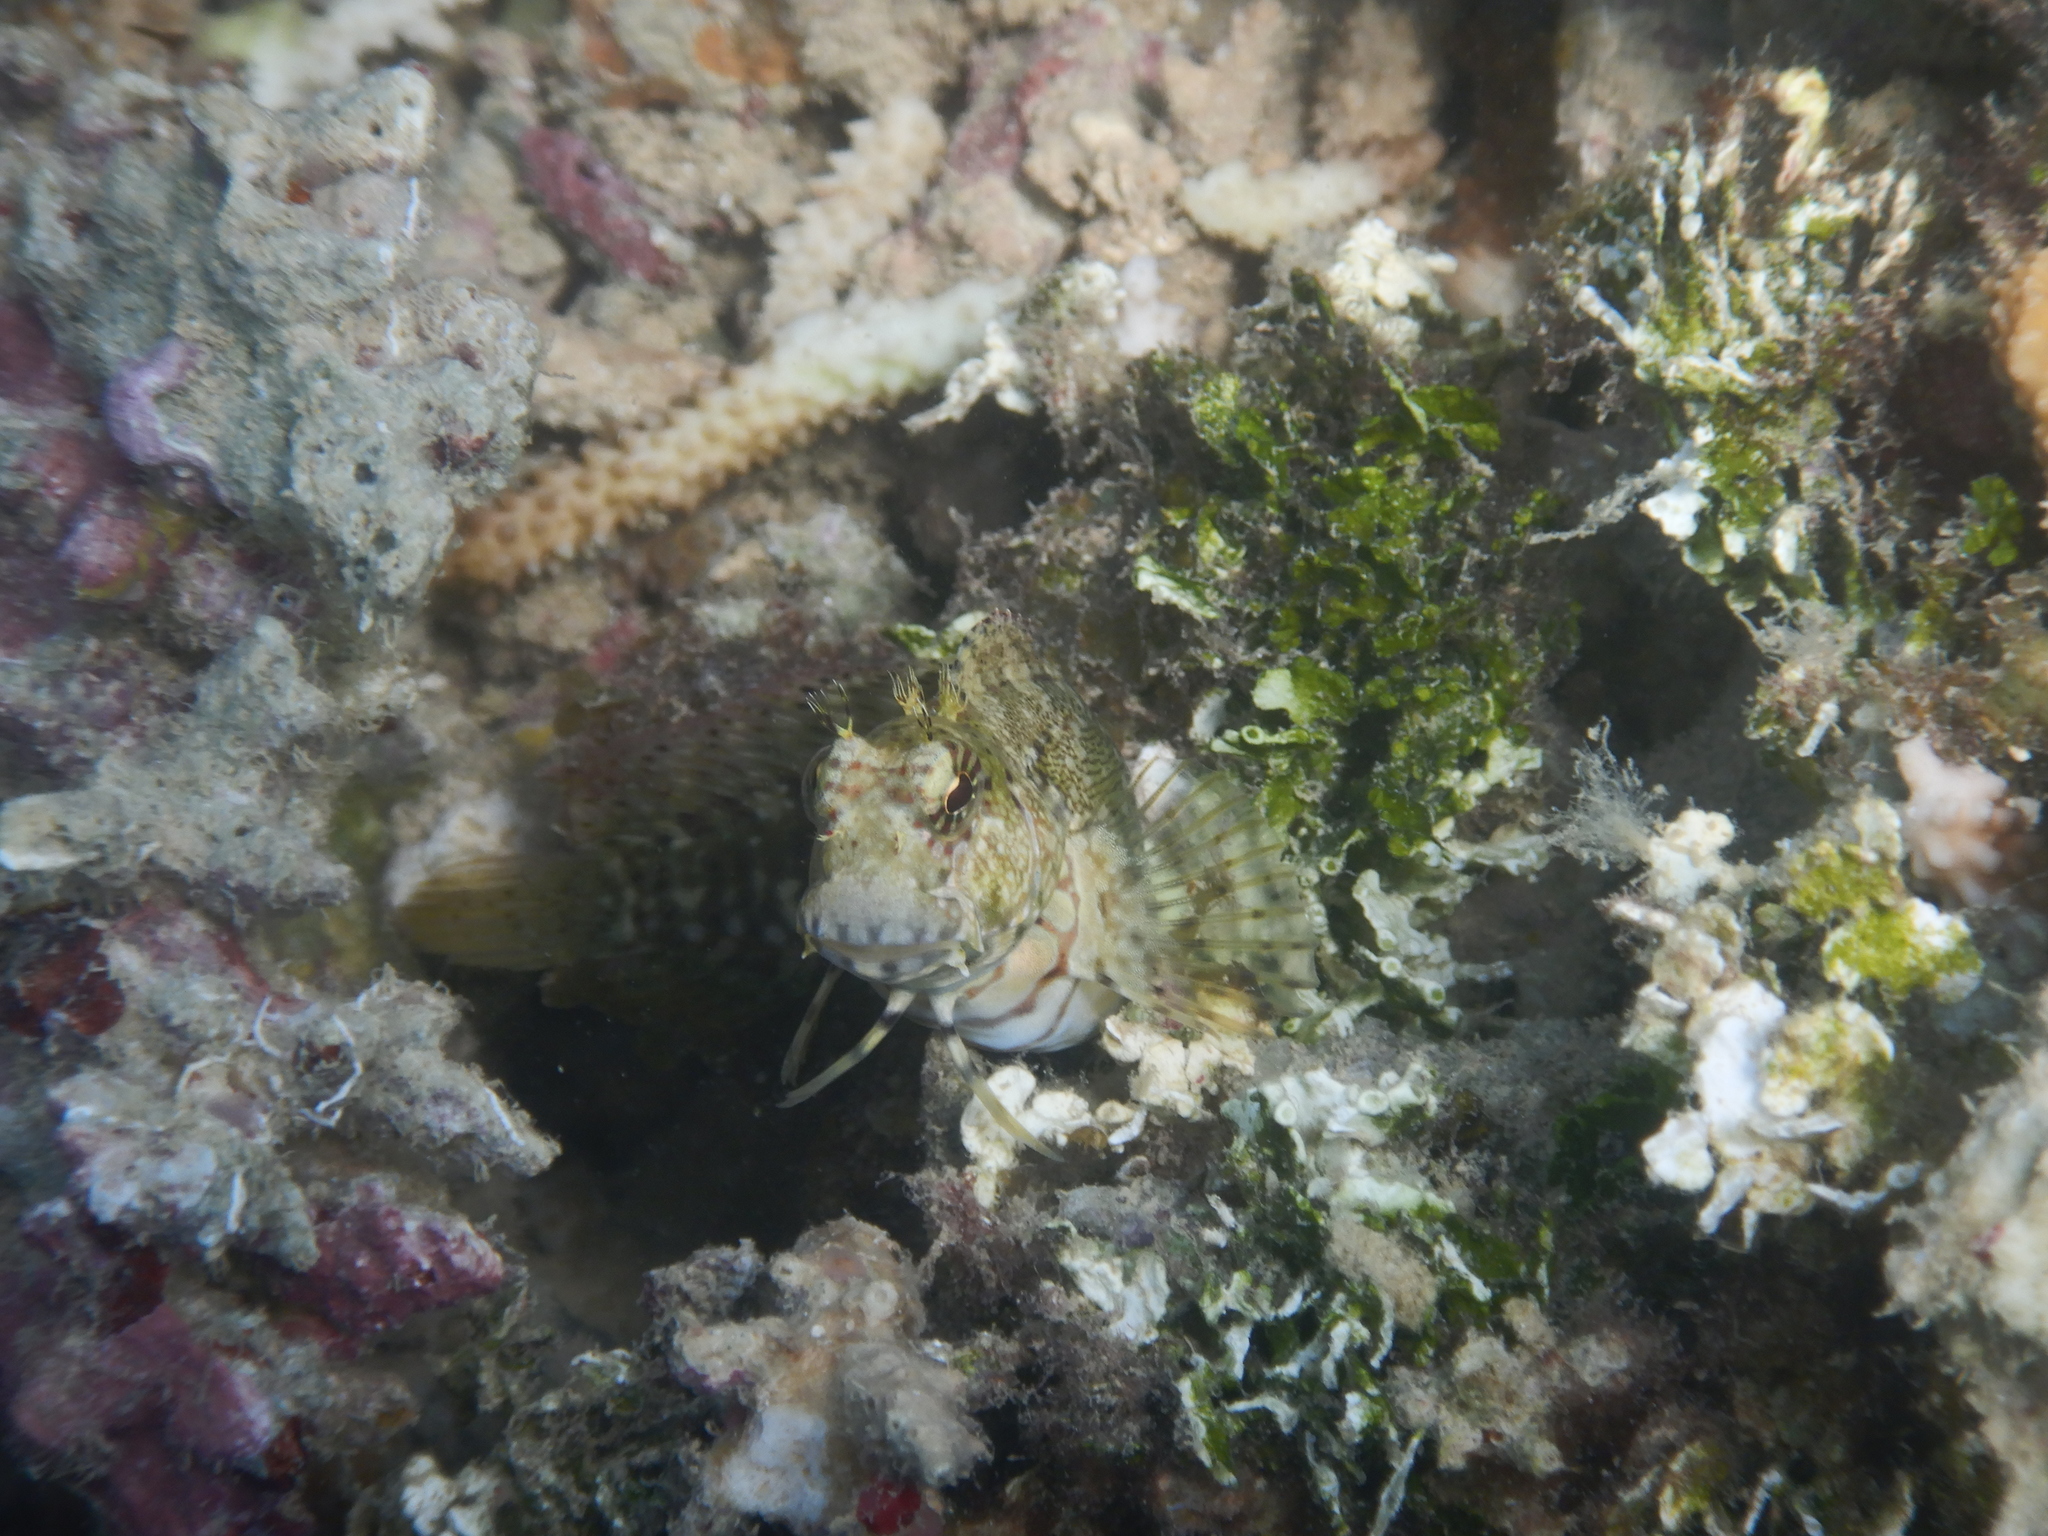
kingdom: Animalia
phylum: Chordata
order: Perciformes
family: Blenniidae
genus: Salarias
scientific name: Salarias fasciatus
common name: Jewelled blenny
